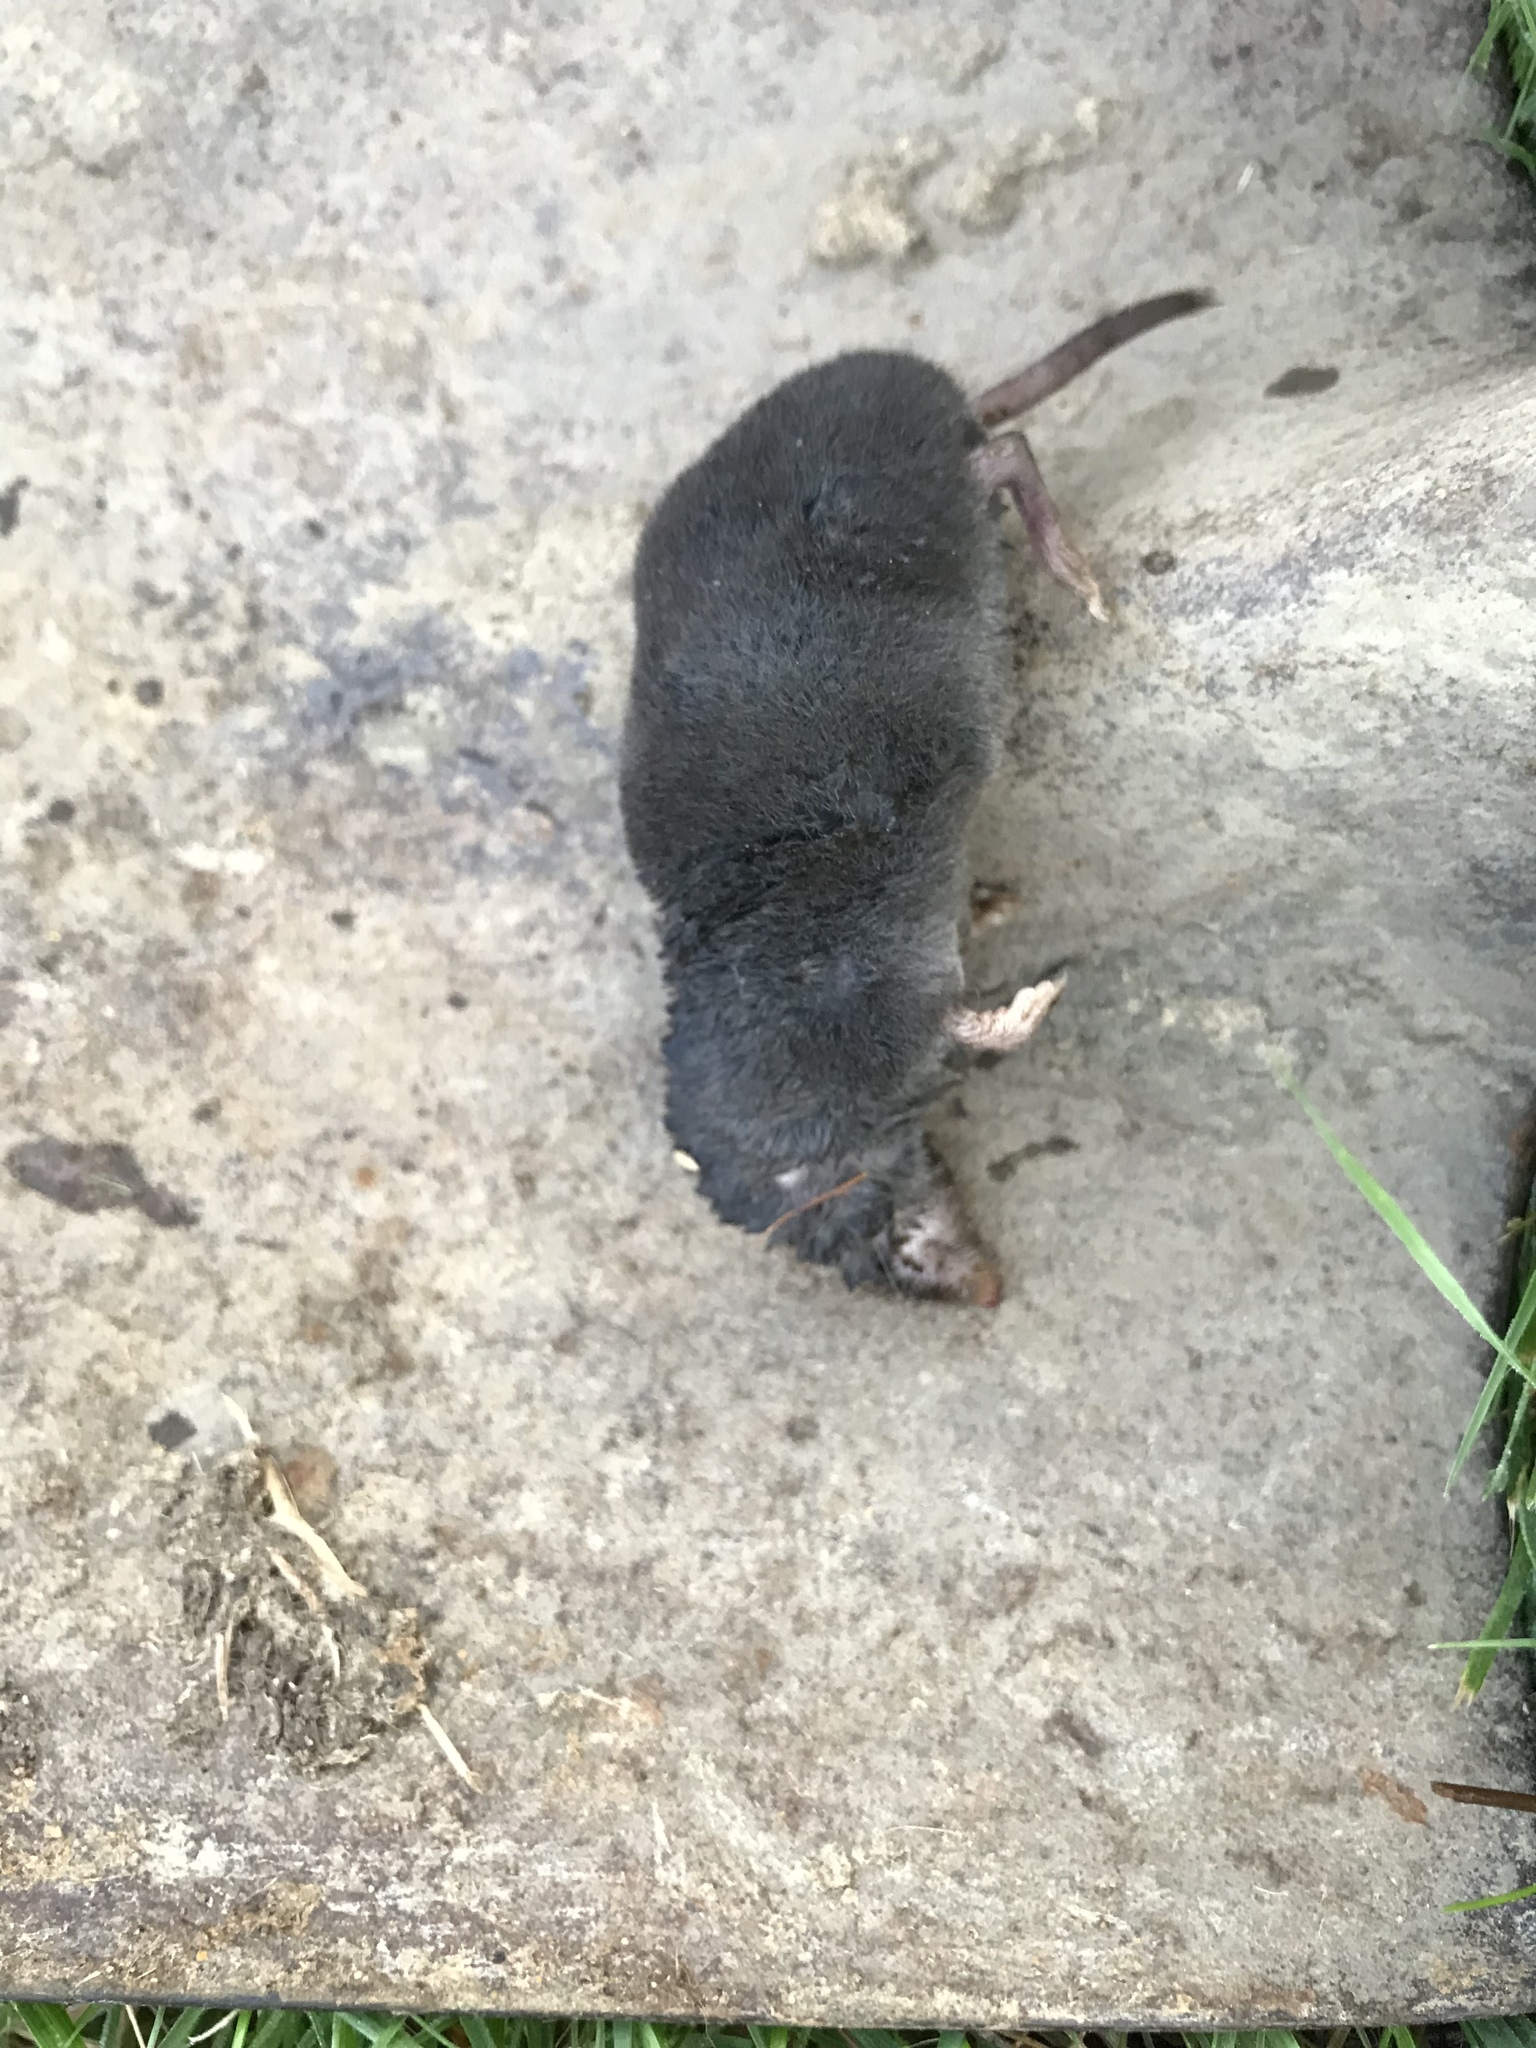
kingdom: Animalia
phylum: Chordata
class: Mammalia
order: Soricomorpha
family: Soricidae
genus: Blarina
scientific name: Blarina brevicauda
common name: Northern short-tailed shrew
